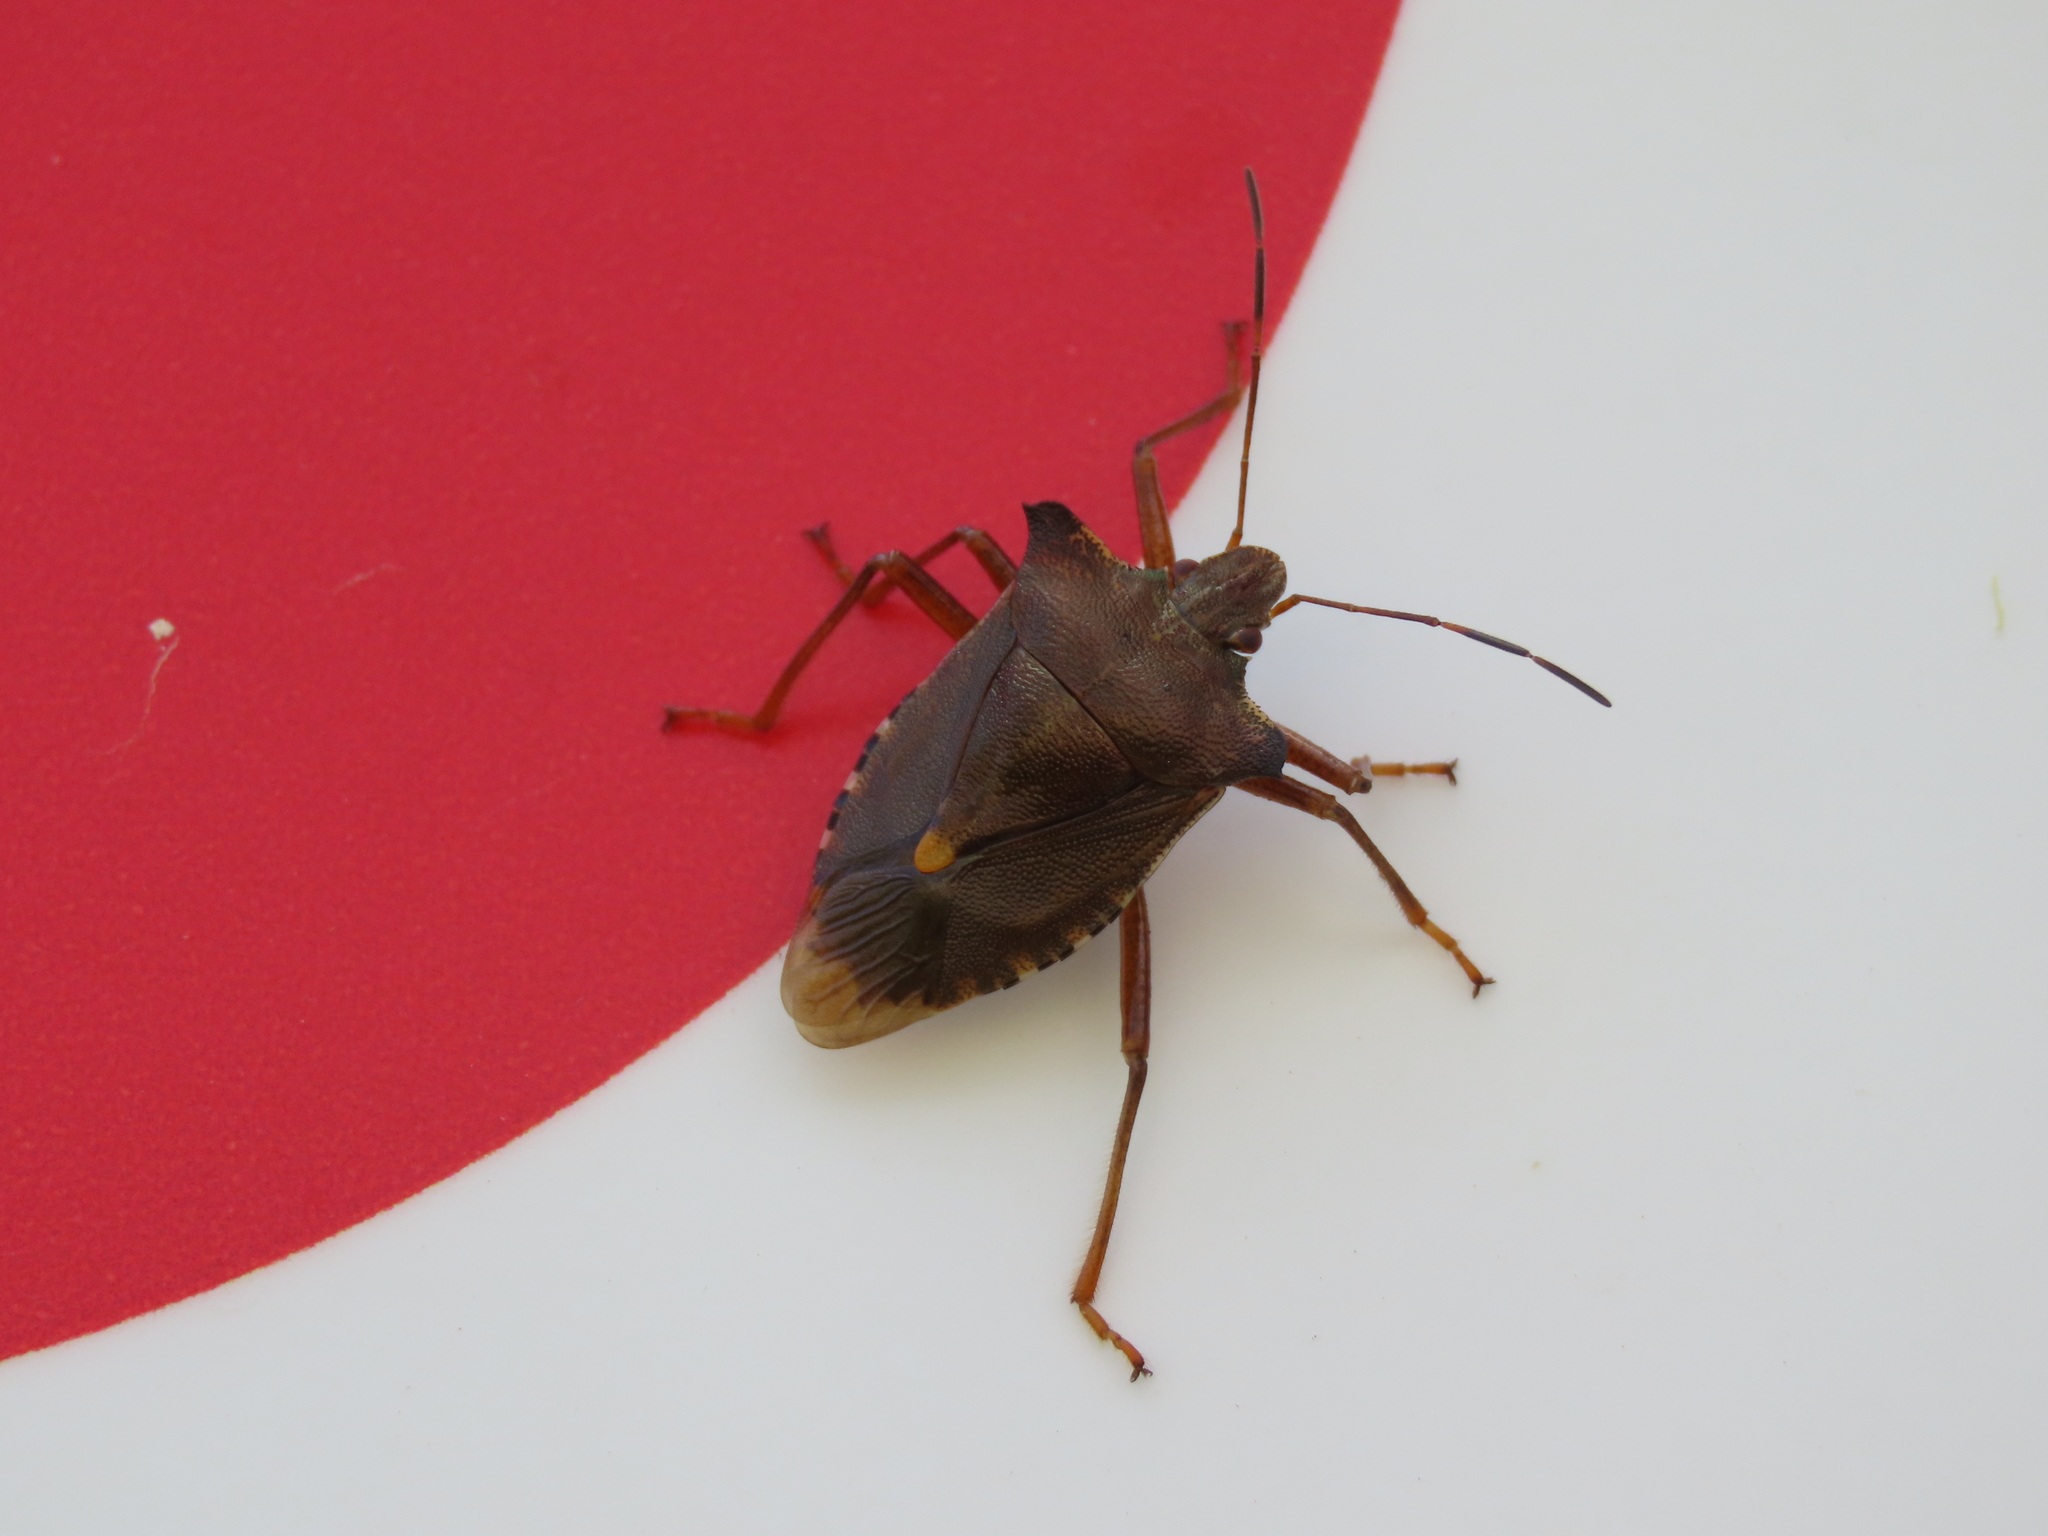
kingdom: Animalia
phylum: Arthropoda
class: Insecta
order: Hemiptera
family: Pentatomidae
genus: Pentatoma
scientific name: Pentatoma rufipes
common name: Forest bug
